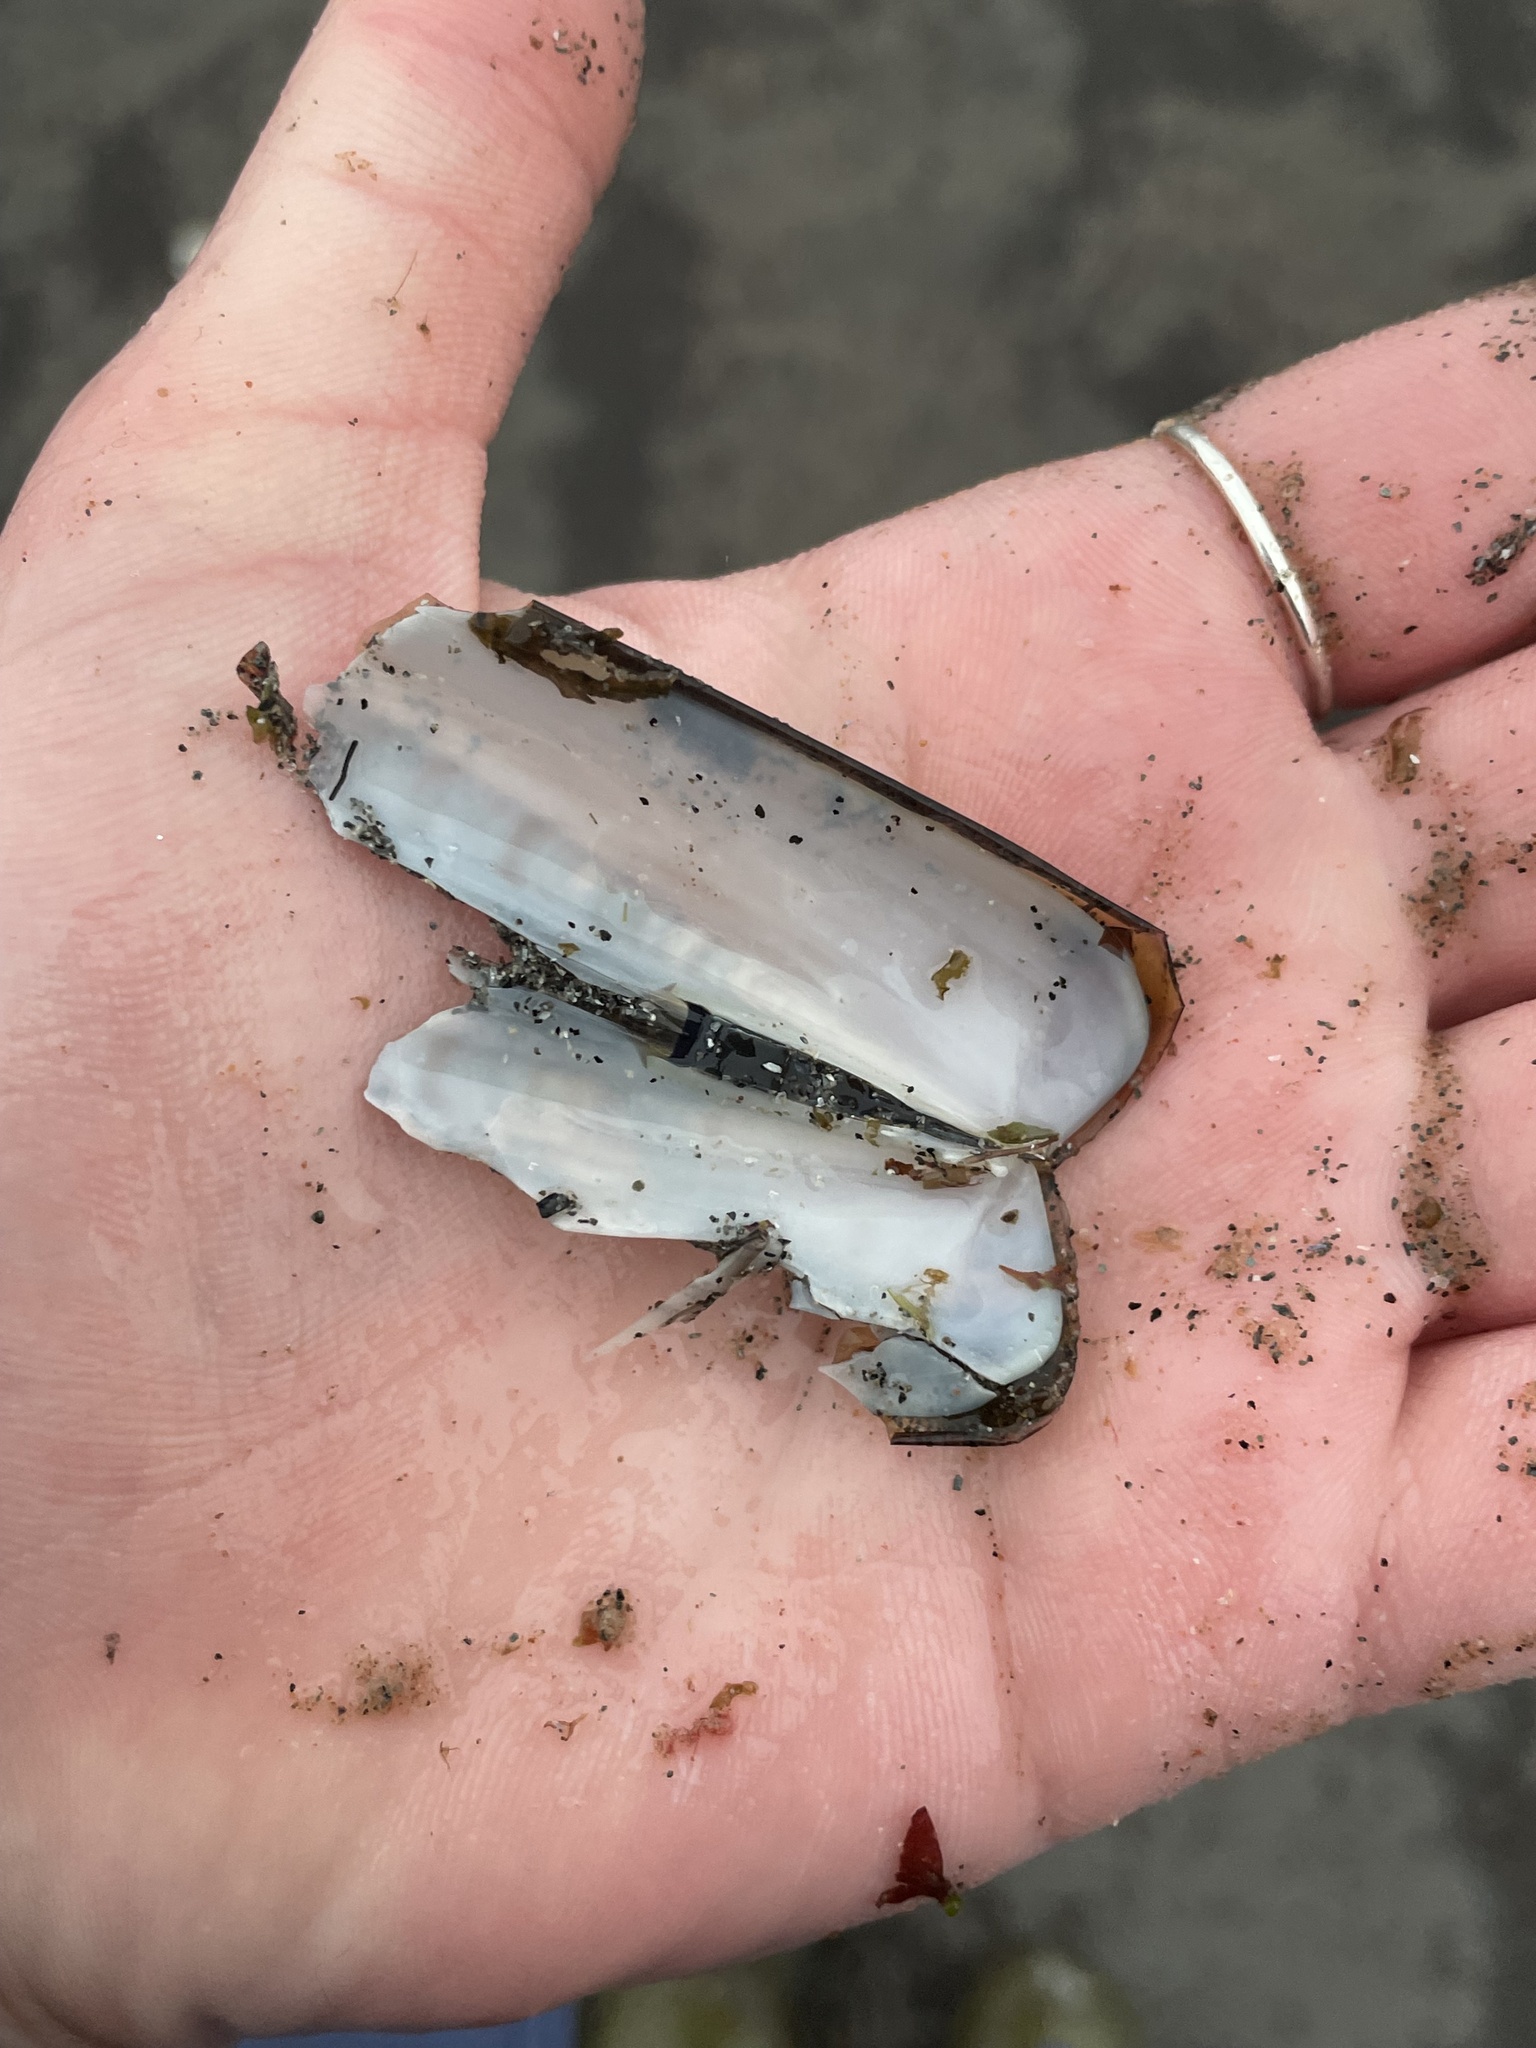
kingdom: Animalia
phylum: Mollusca
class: Bivalvia
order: Adapedonta
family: Pharidae
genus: Ensis
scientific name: Ensis leei
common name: American jack knife clam
